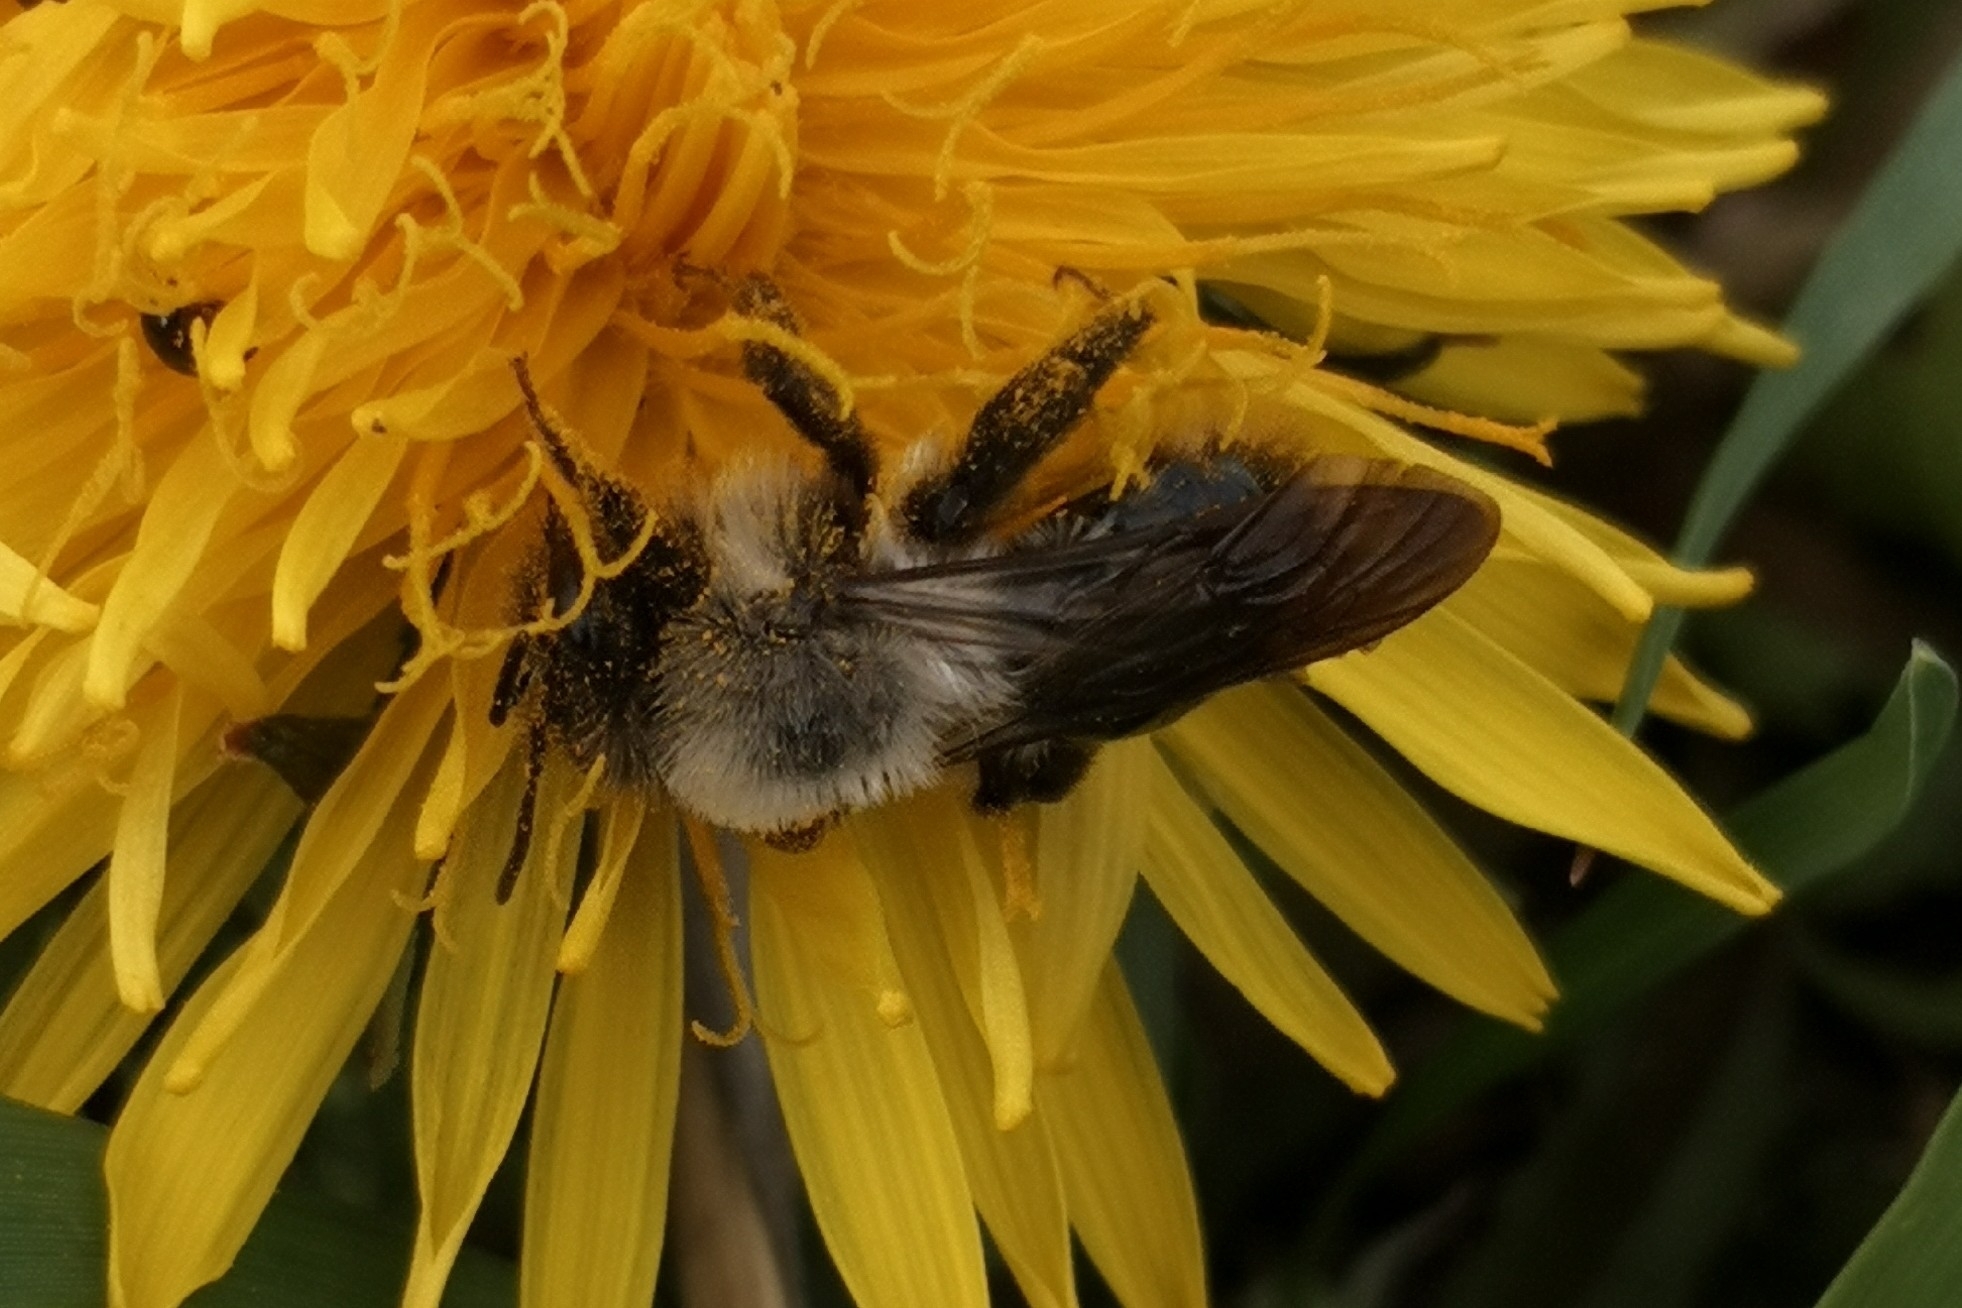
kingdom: Animalia
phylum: Arthropoda
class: Insecta
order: Hymenoptera
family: Andrenidae
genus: Andrena
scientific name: Andrena vaga
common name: Grey-backed mining bee
